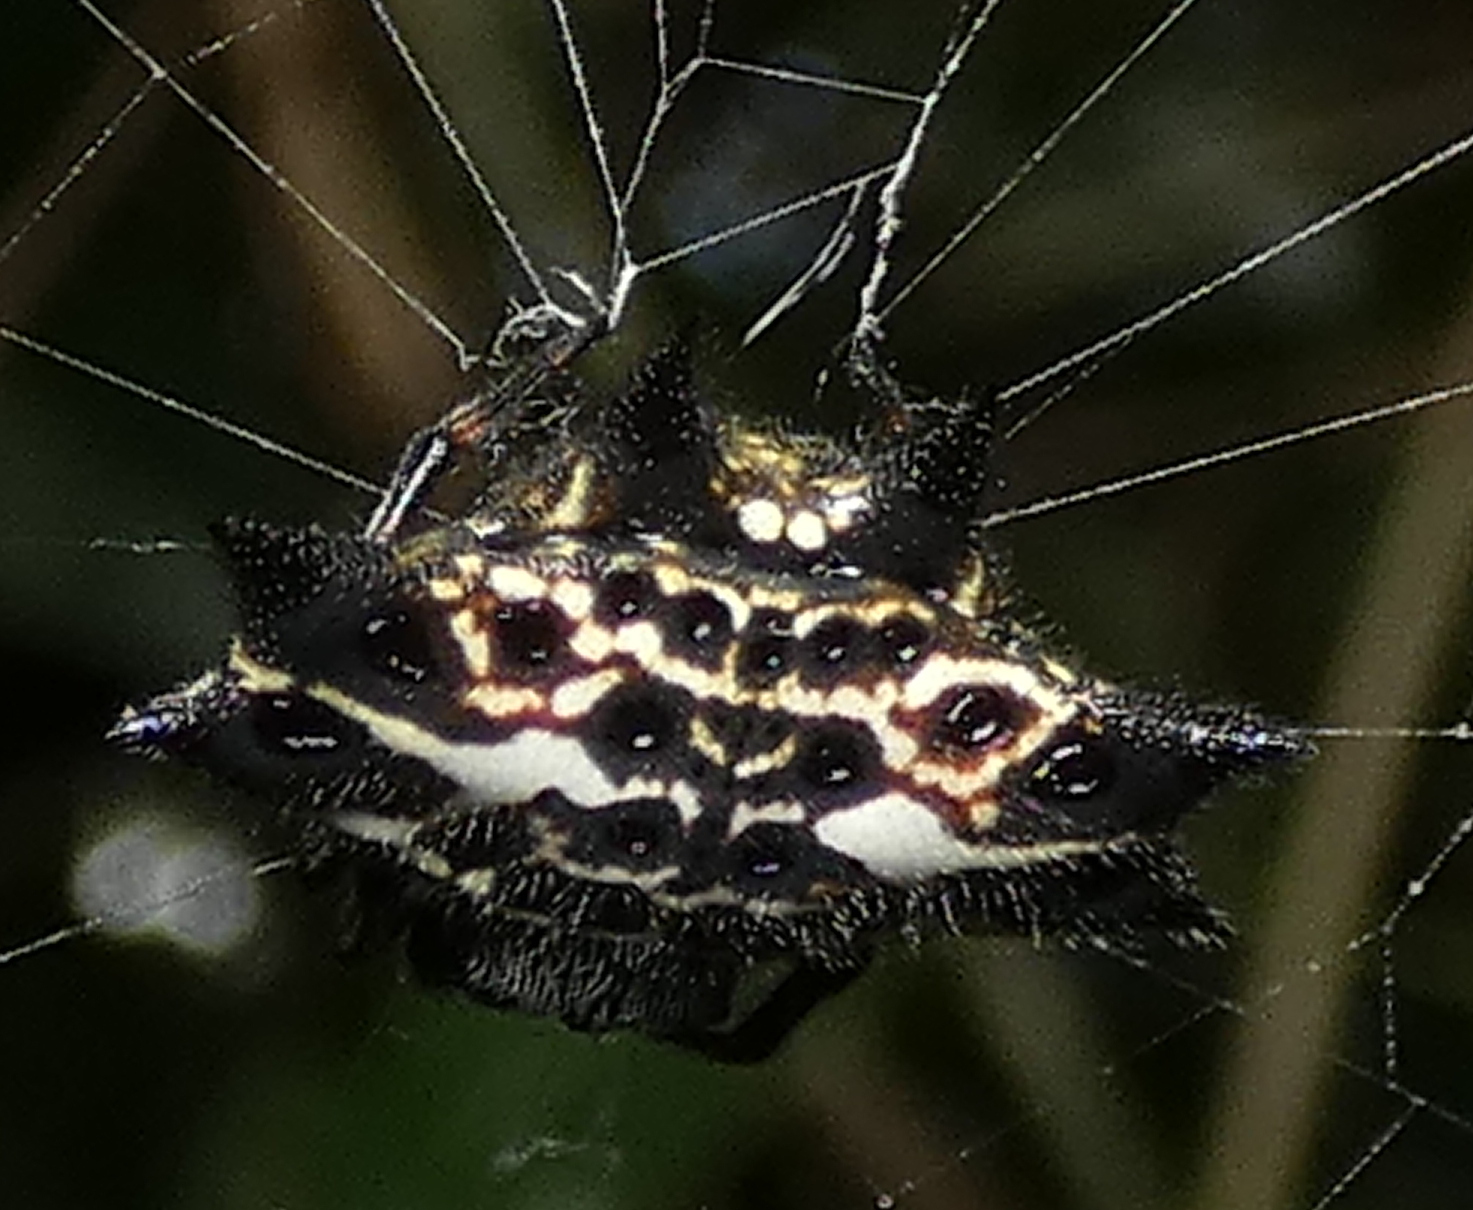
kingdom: Animalia
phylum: Arthropoda
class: Arachnida
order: Araneae
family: Araneidae
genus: Gasteracantha
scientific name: Gasteracantha cancriformis
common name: Orb weavers
